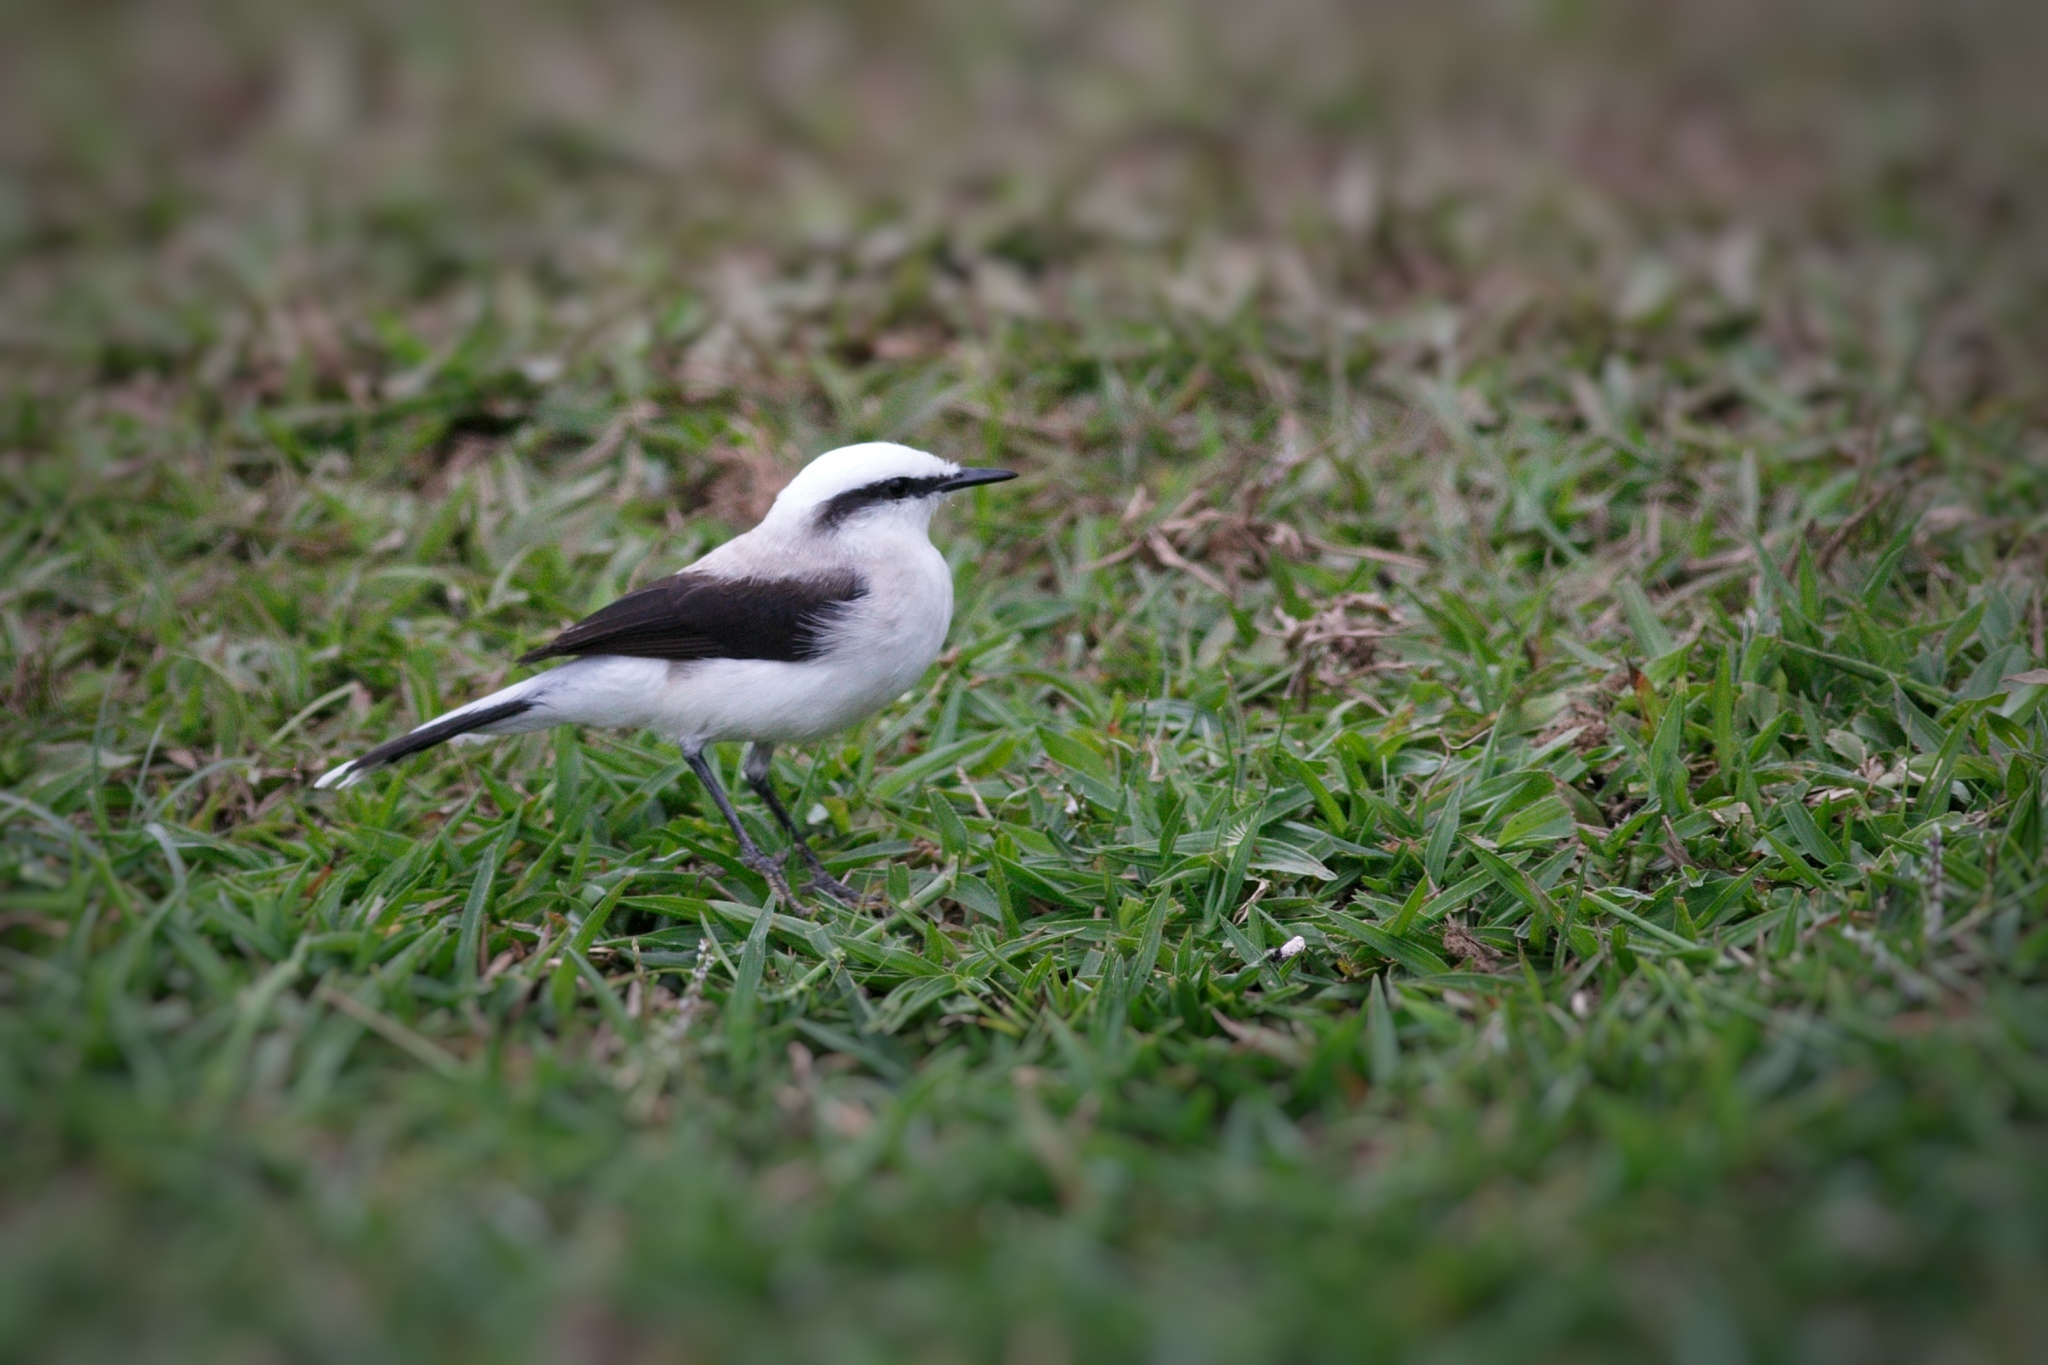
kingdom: Animalia
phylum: Chordata
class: Aves
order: Passeriformes
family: Tyrannidae
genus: Fluvicola
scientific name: Fluvicola nengeta
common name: Masked water tyrant
